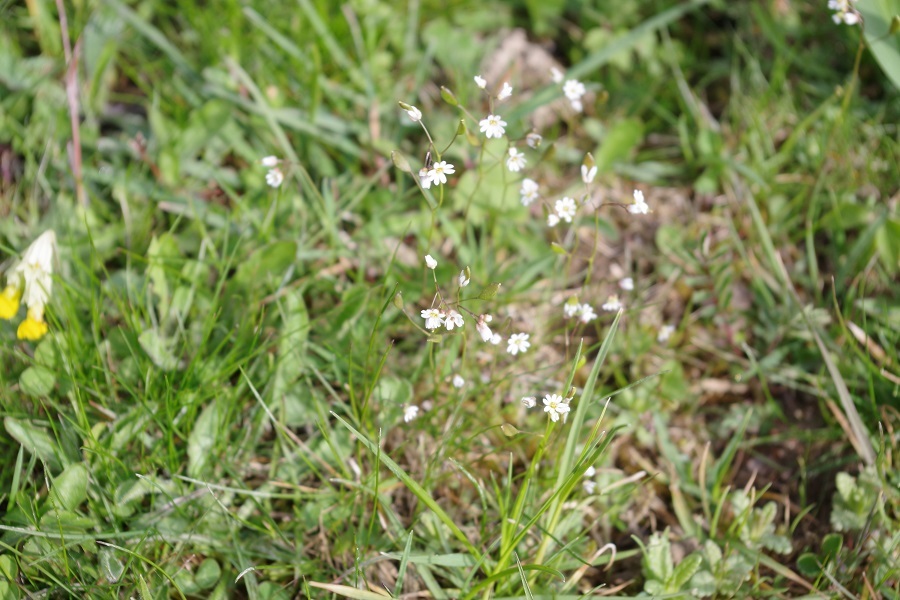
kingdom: Plantae
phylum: Tracheophyta
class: Magnoliopsida
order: Brassicales
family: Brassicaceae
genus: Draba
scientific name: Draba verna
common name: Spring draba
